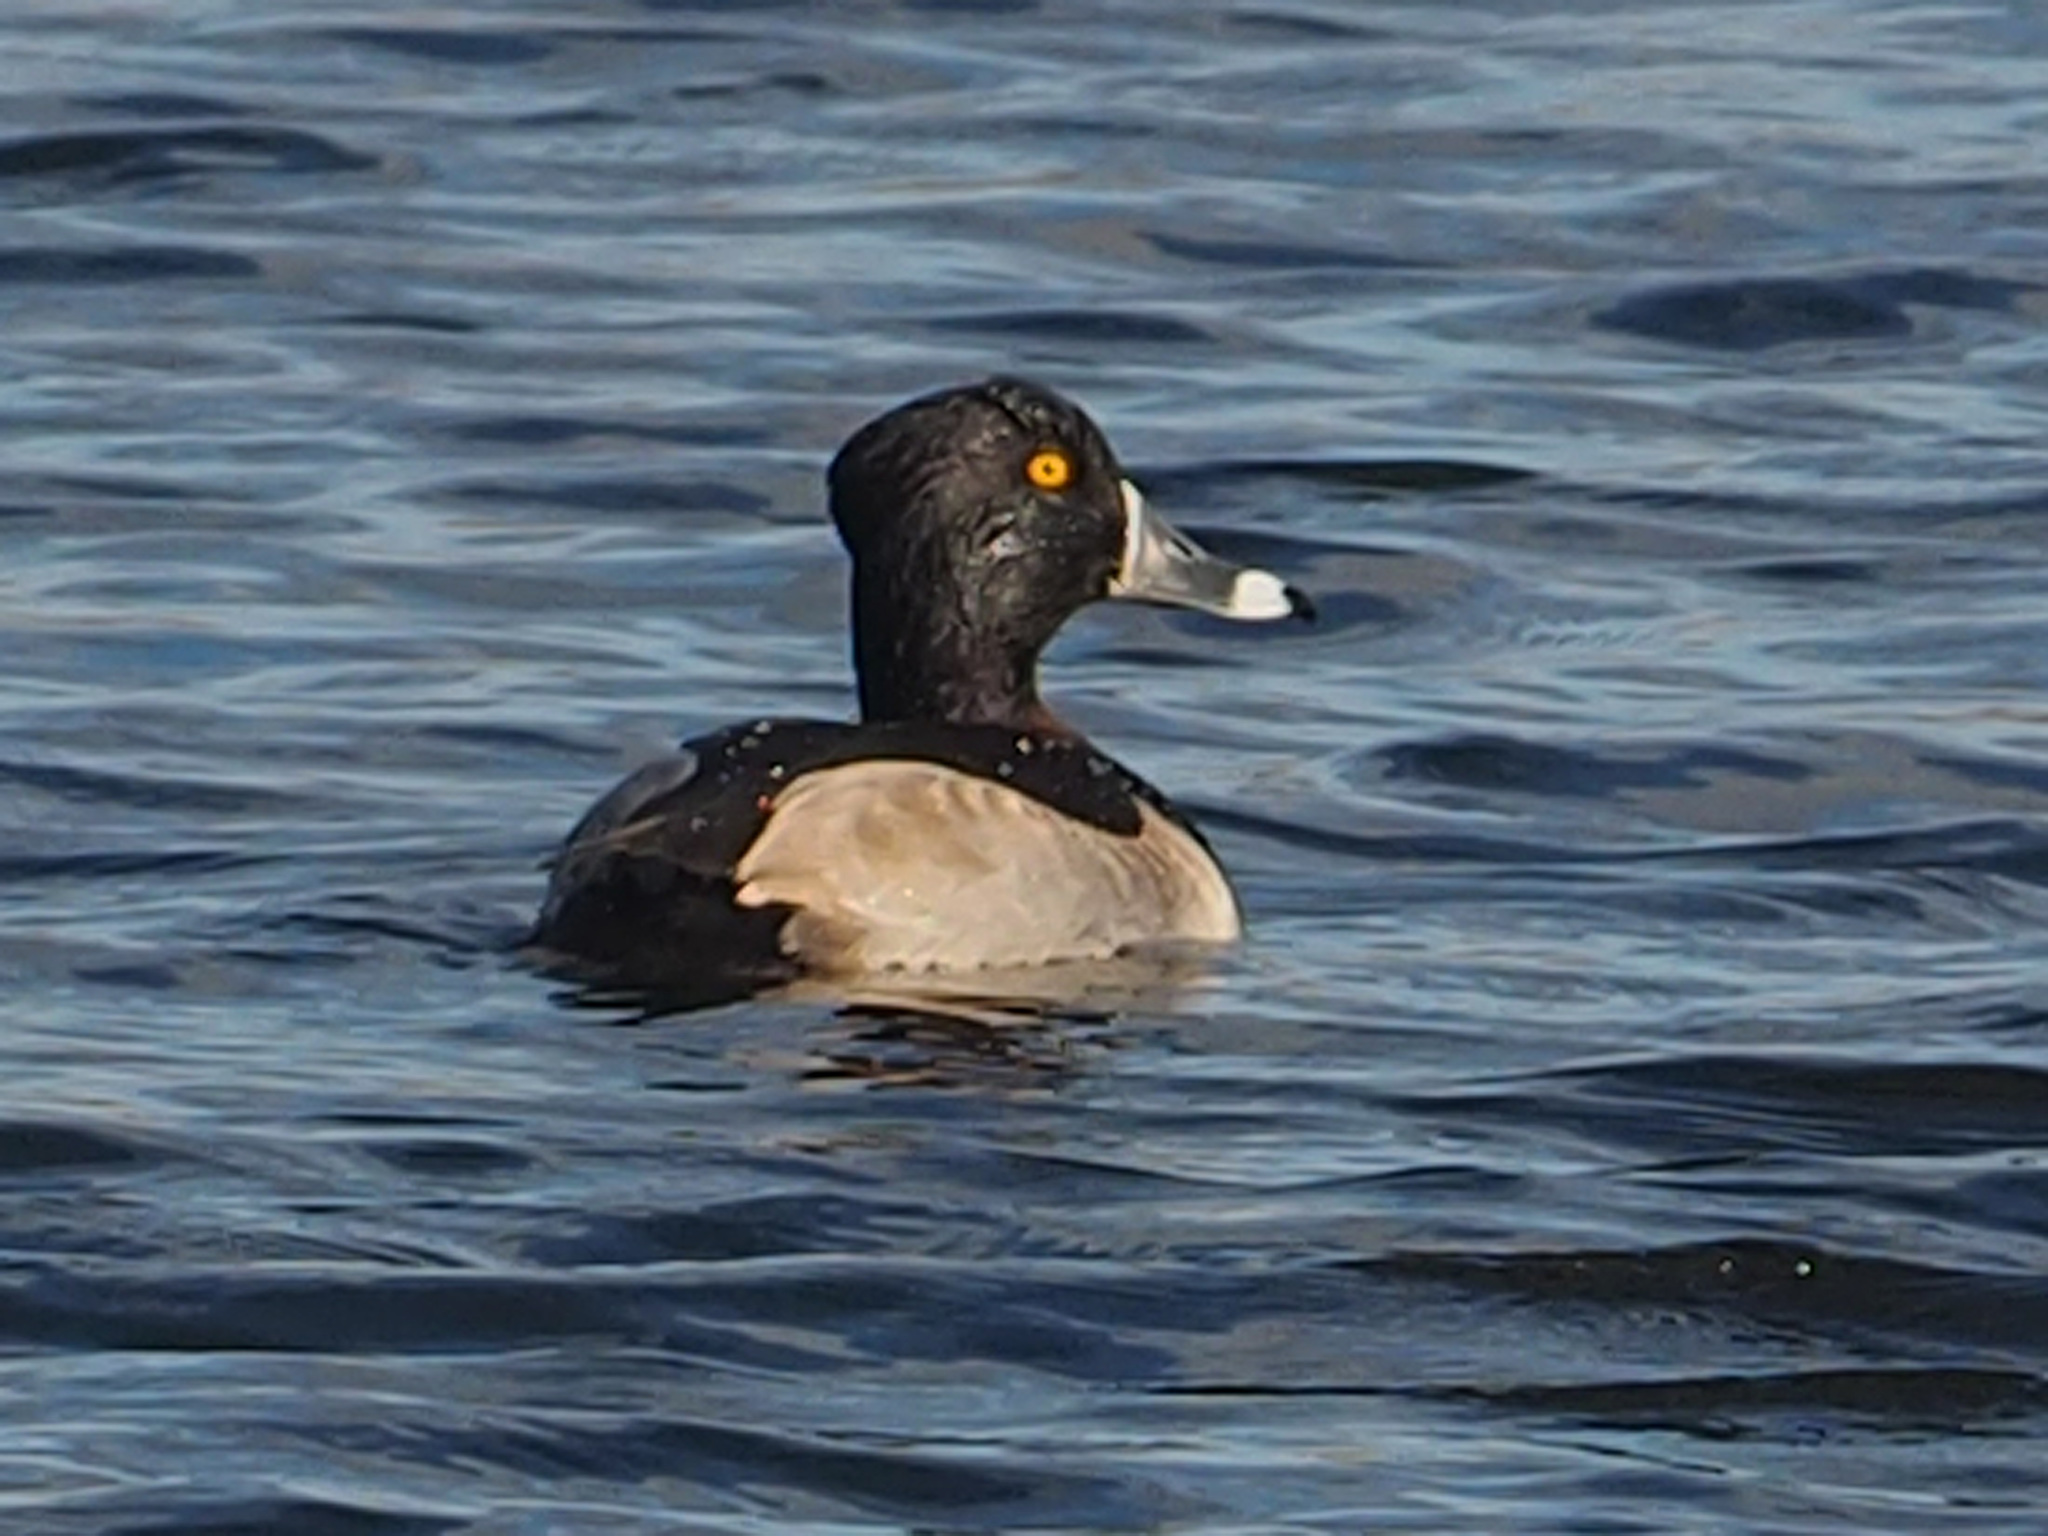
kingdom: Animalia
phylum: Chordata
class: Aves
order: Anseriformes
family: Anatidae
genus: Aythya
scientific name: Aythya collaris
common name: Ring-necked duck
